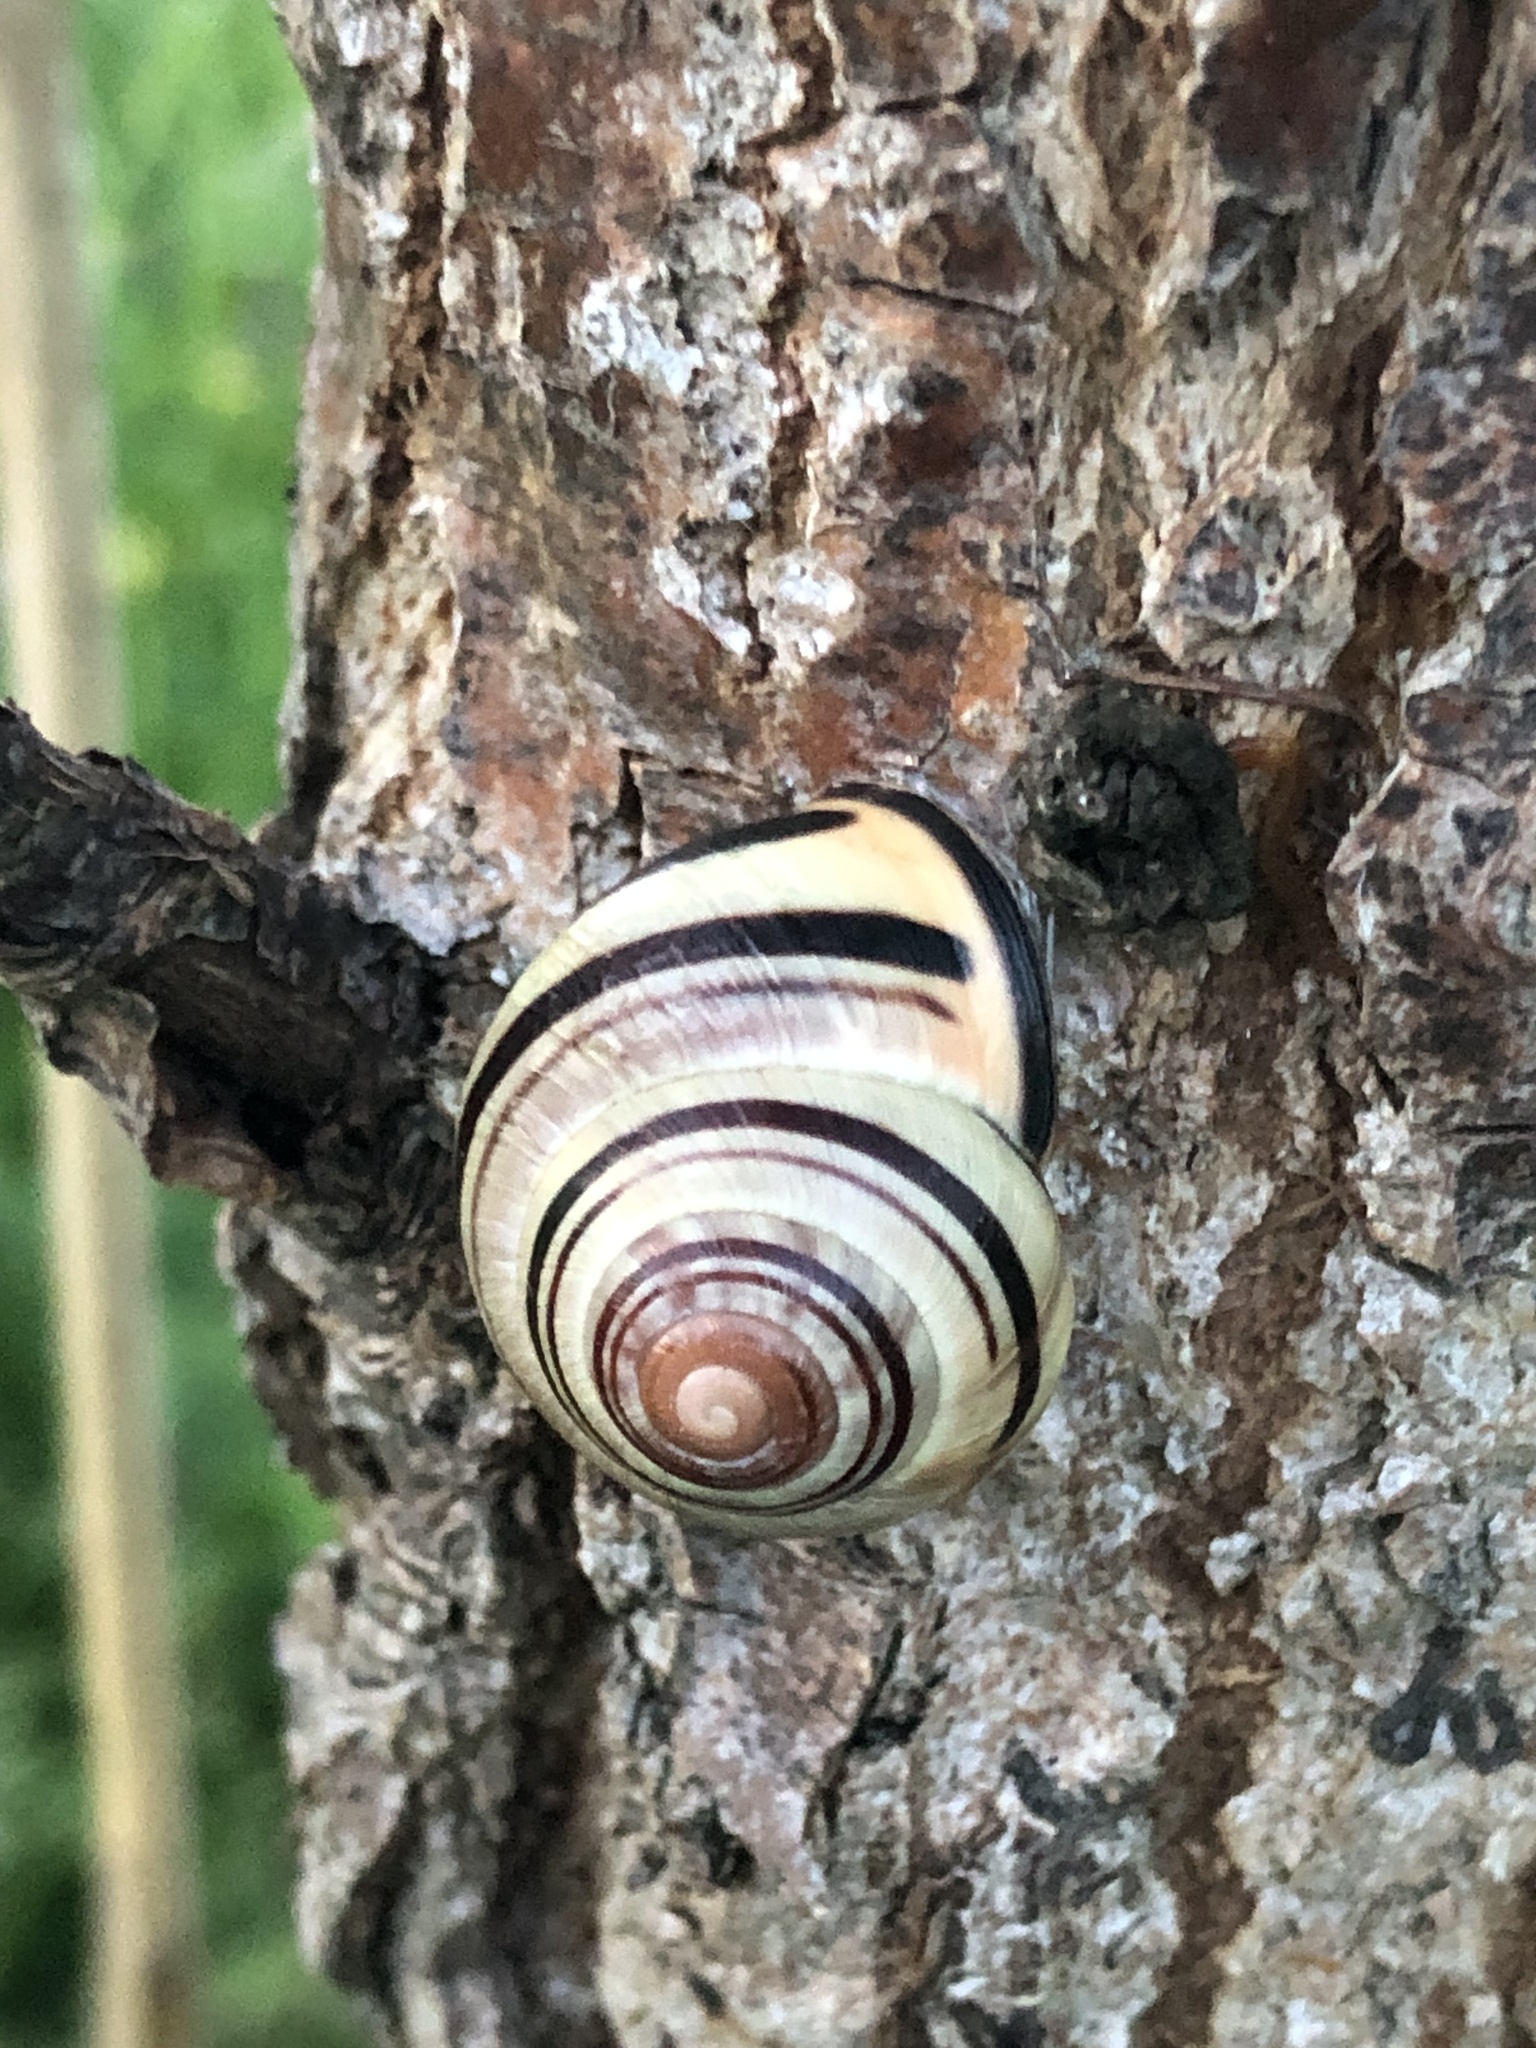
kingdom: Animalia
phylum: Mollusca
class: Gastropoda
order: Stylommatophora
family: Helicidae
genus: Cepaea
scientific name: Cepaea nemoralis
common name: Grovesnail
